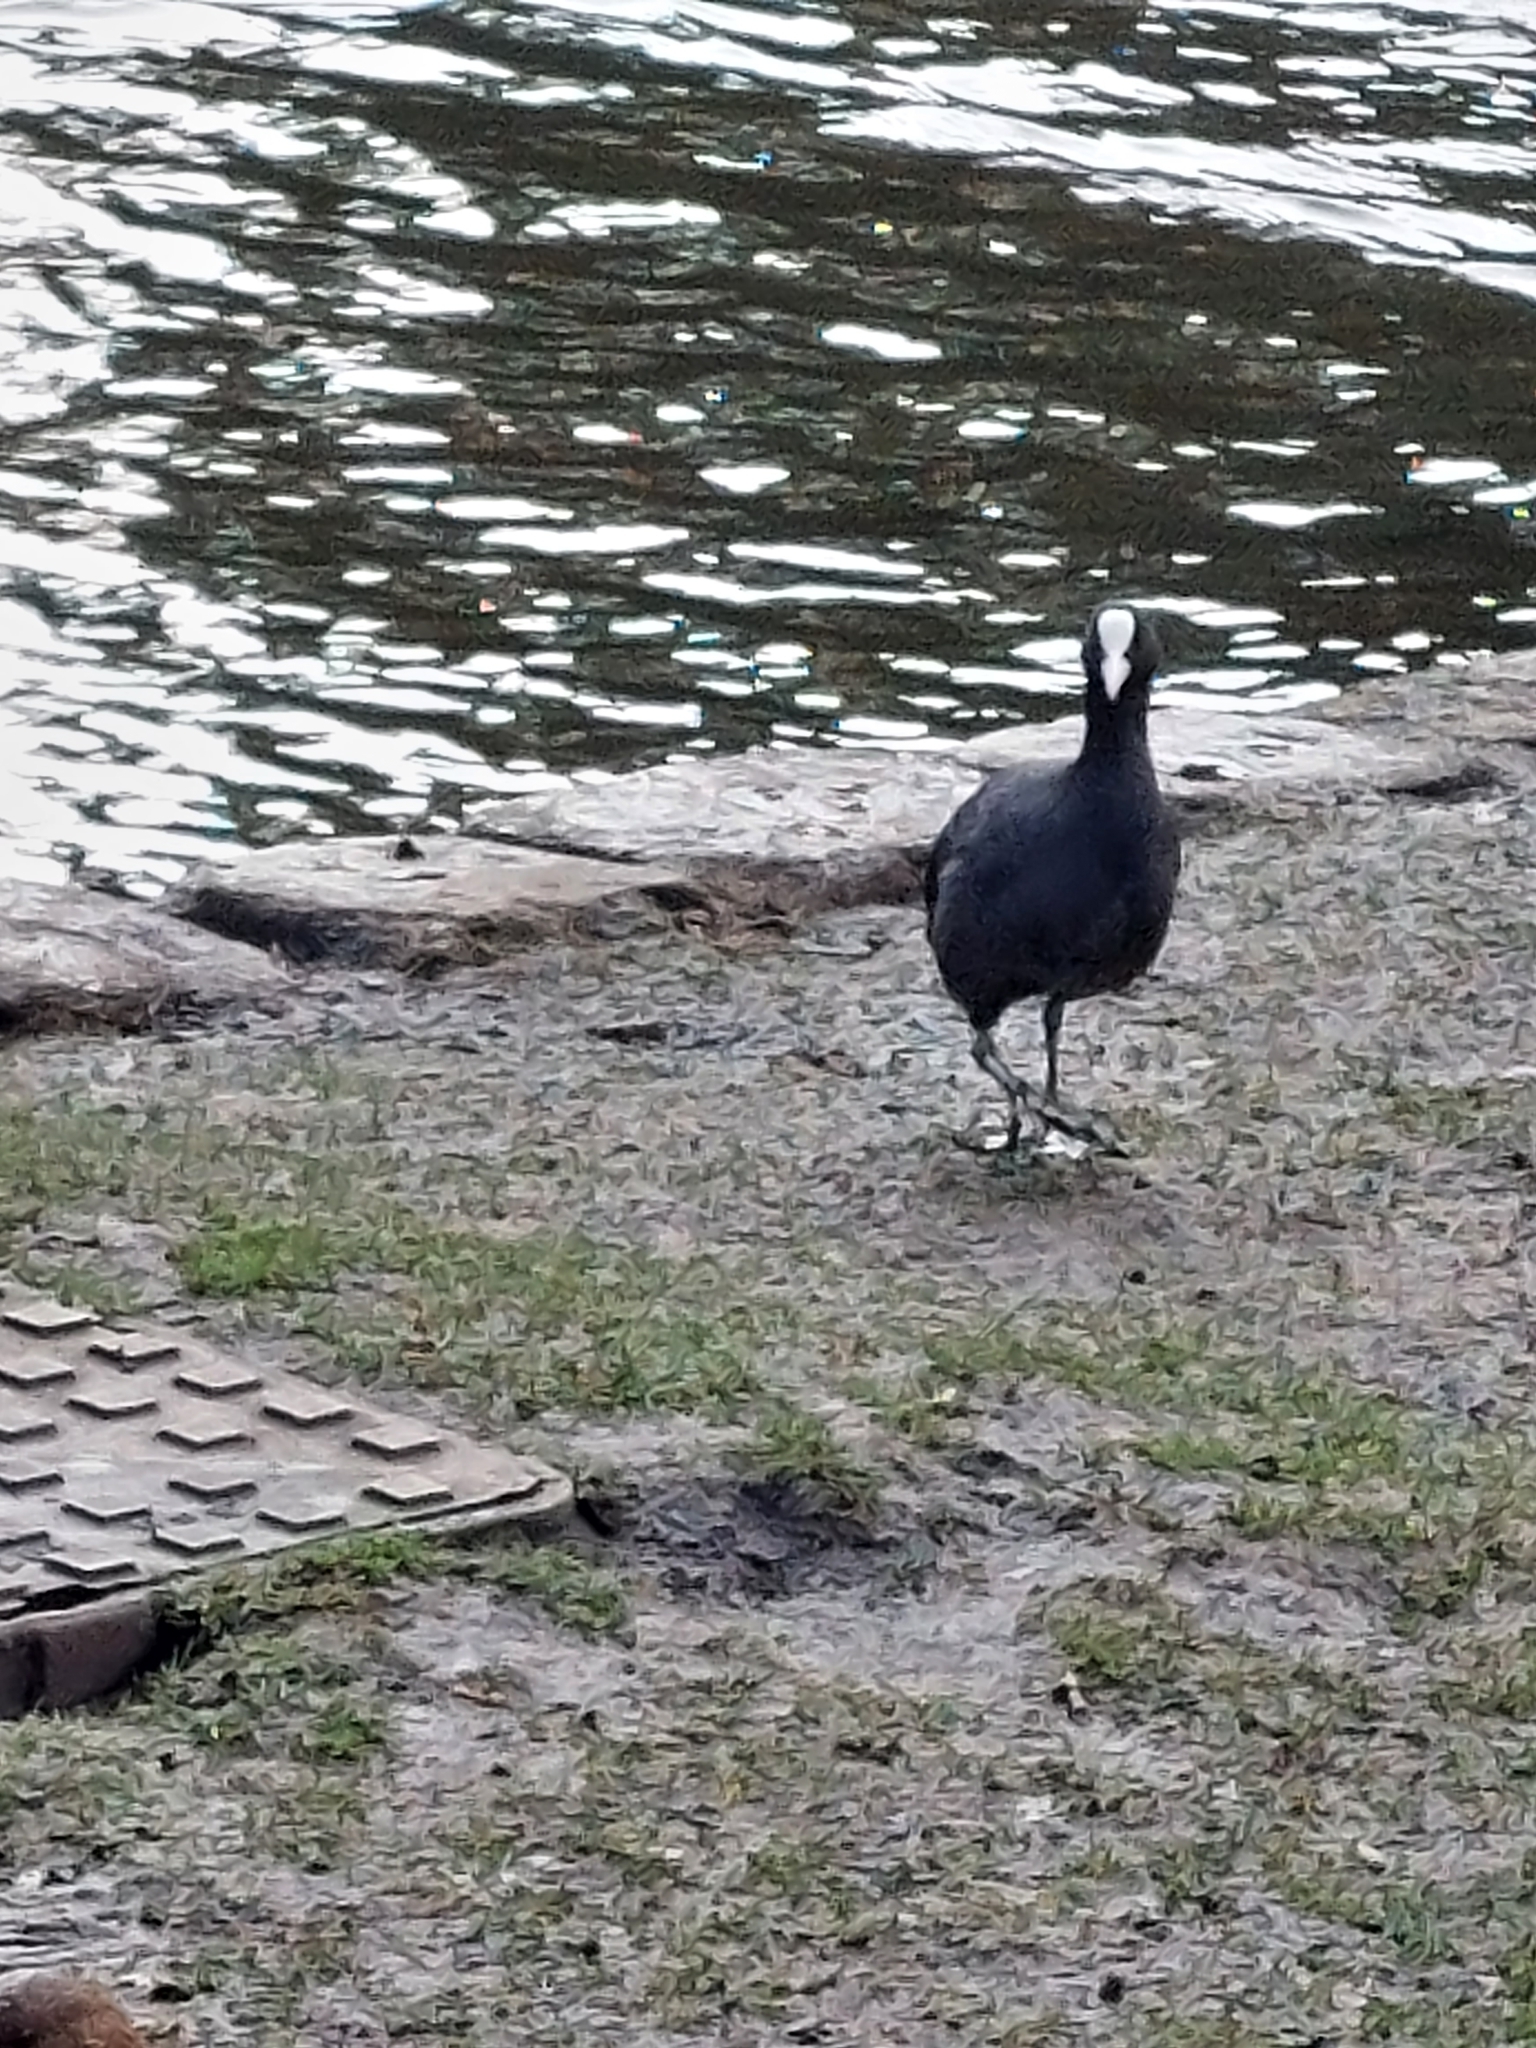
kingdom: Animalia
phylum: Chordata
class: Aves
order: Gruiformes
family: Rallidae
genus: Fulica
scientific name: Fulica atra
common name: Eurasian coot
